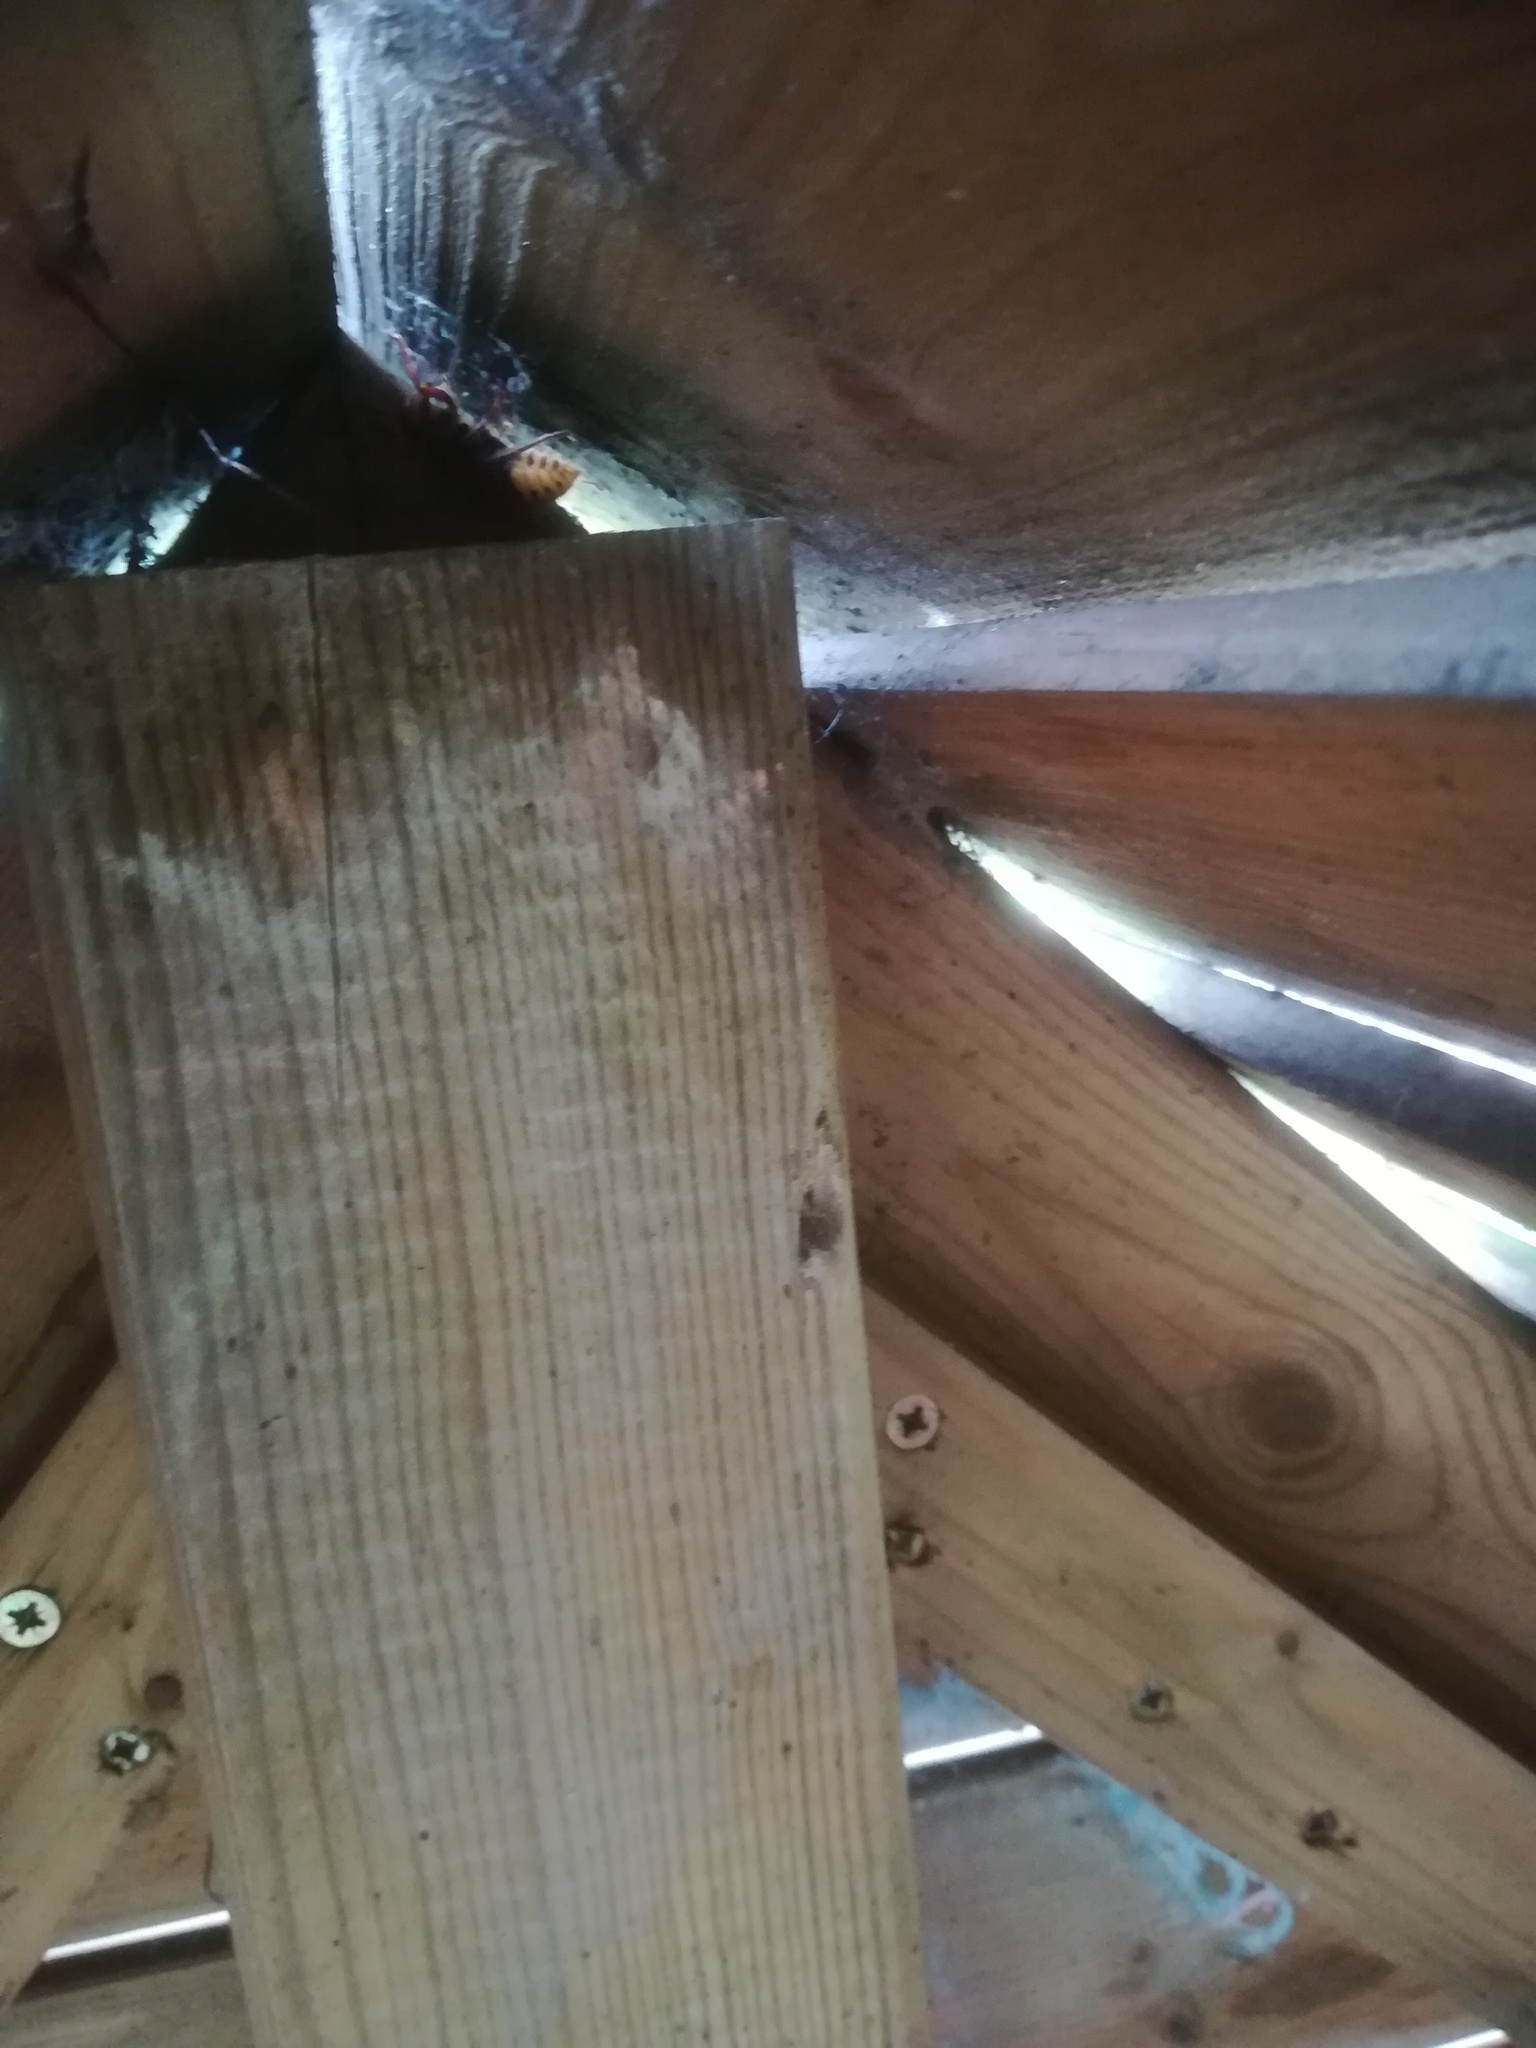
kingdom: Animalia
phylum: Arthropoda
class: Insecta
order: Hymenoptera
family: Vespidae
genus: Vespa
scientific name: Vespa crabro
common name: Hornet
